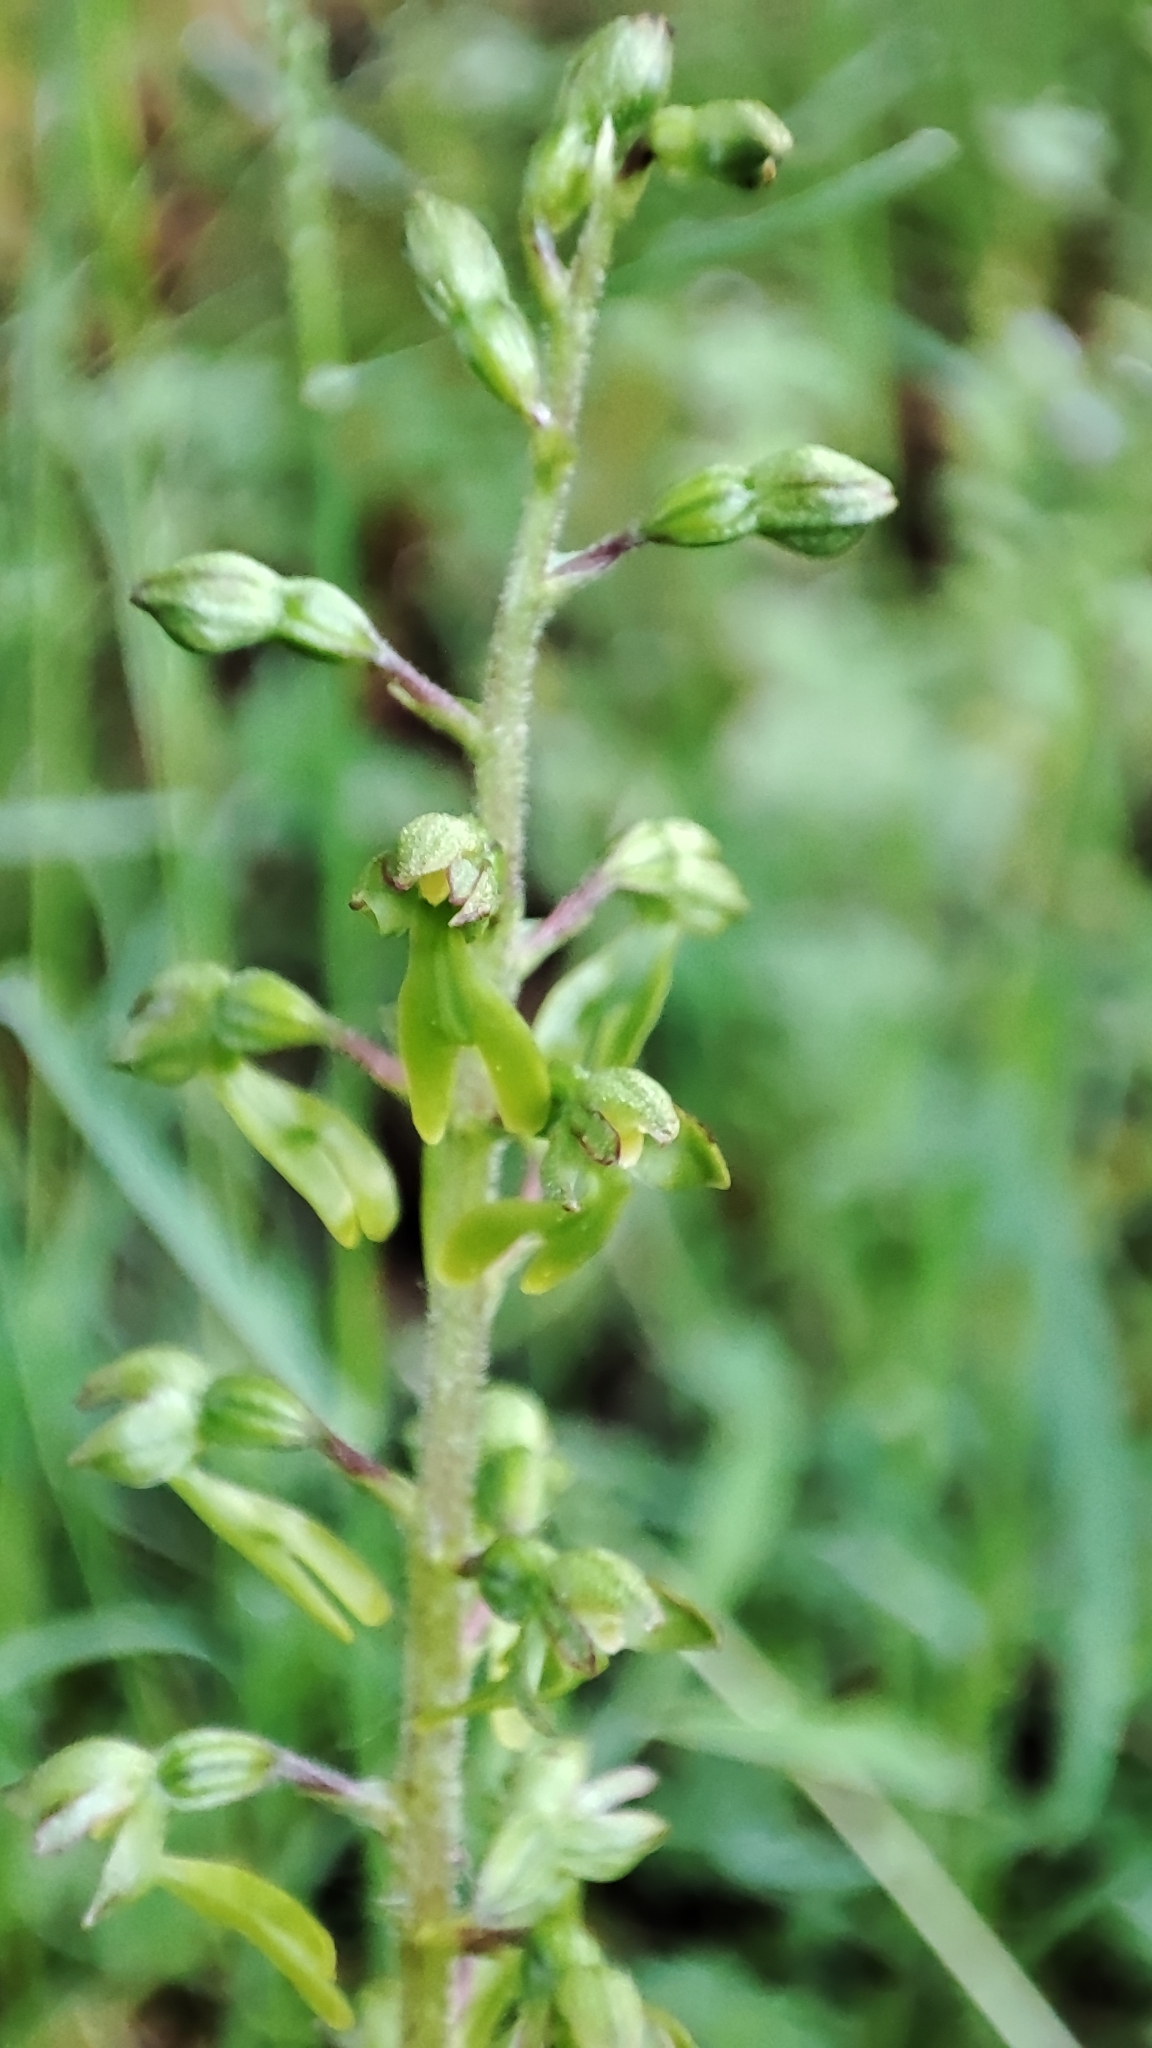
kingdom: Plantae
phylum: Tracheophyta
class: Liliopsida
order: Asparagales
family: Orchidaceae
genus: Neottia
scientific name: Neottia ovata
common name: Common twayblade
